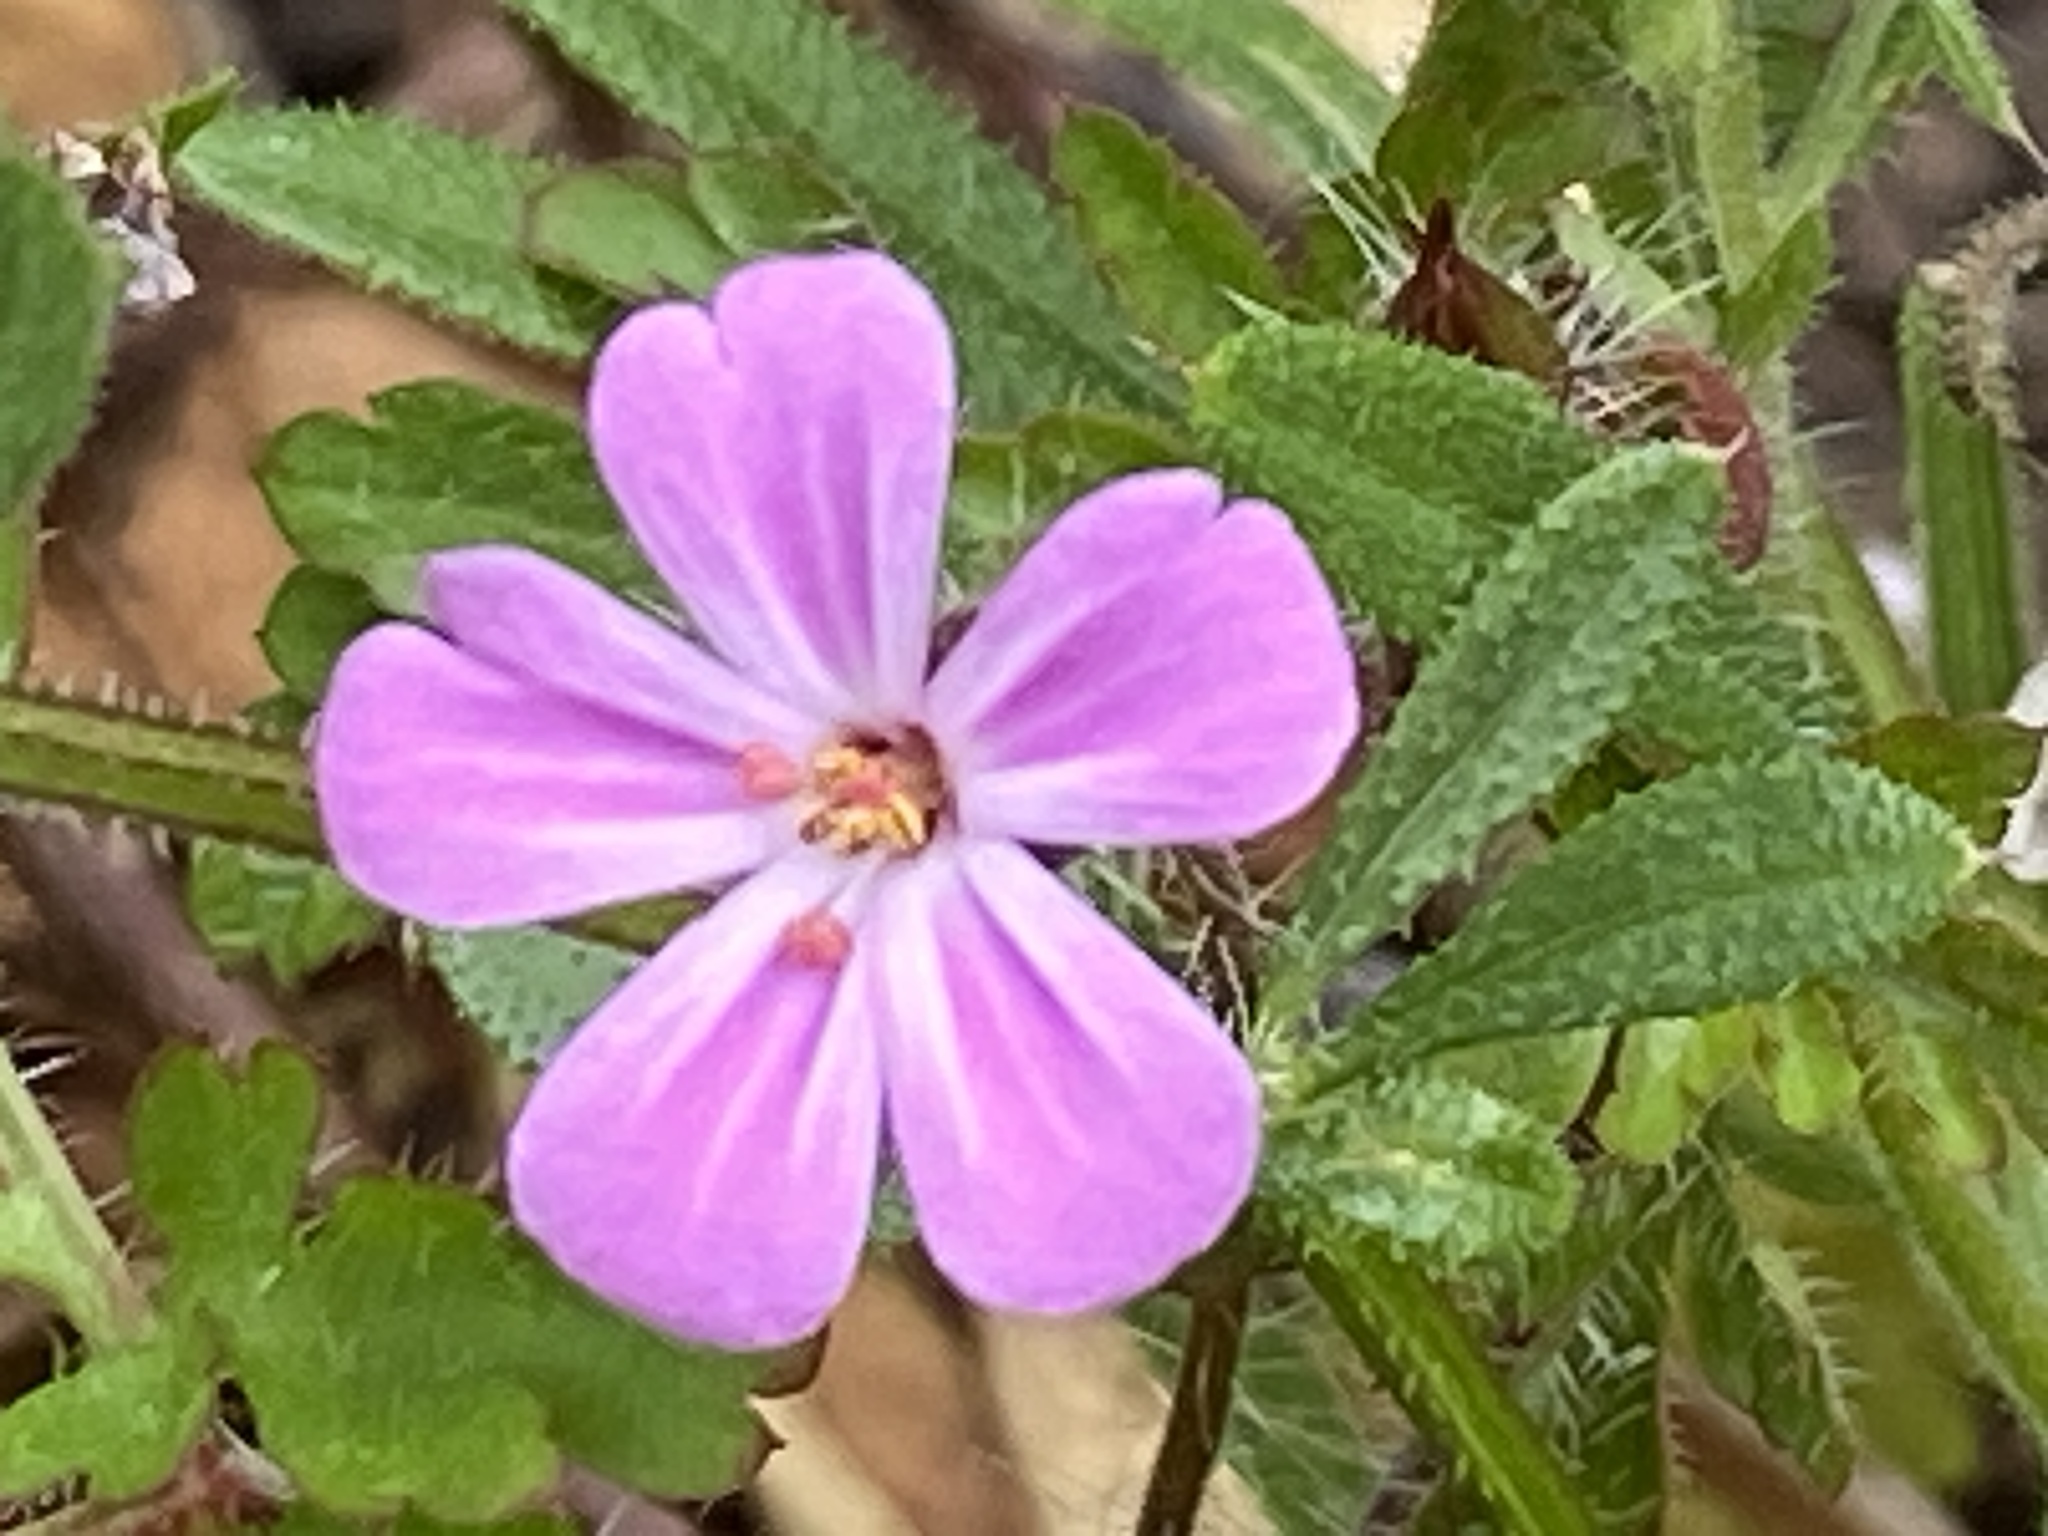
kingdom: Plantae
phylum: Tracheophyta
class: Magnoliopsida
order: Geraniales
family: Geraniaceae
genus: Geranium
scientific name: Geranium robertianum
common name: Herb-robert
